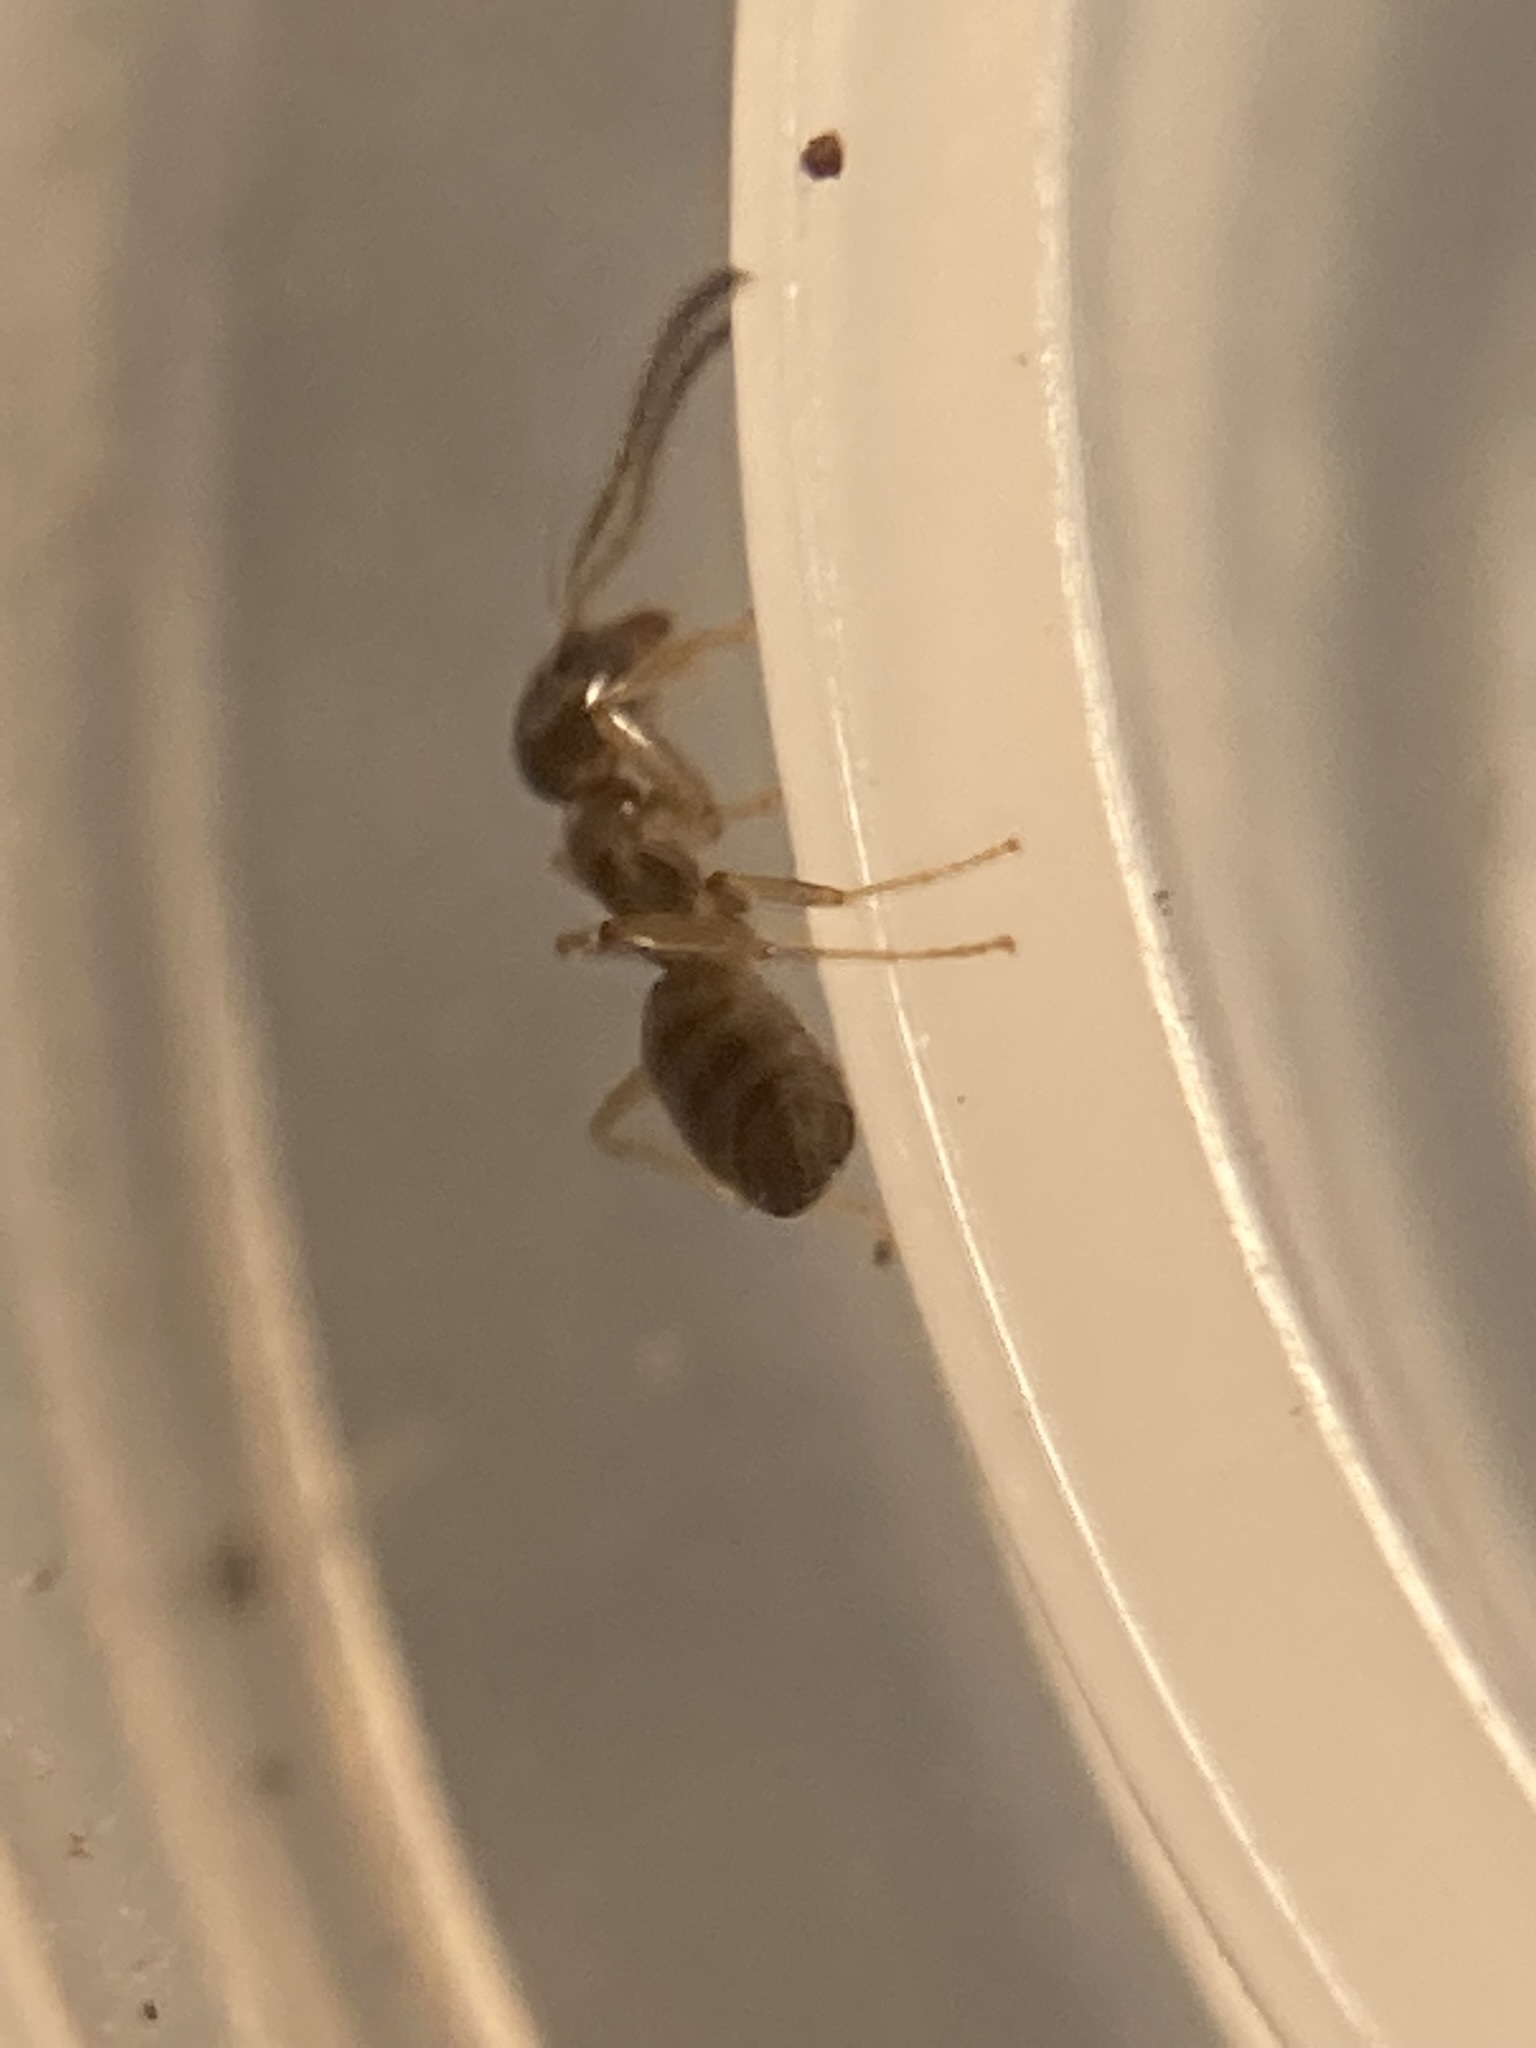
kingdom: Animalia
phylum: Arthropoda
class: Insecta
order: Hymenoptera
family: Formicidae
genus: Tapinoma
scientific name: Tapinoma sessile
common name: Odorous house ant
